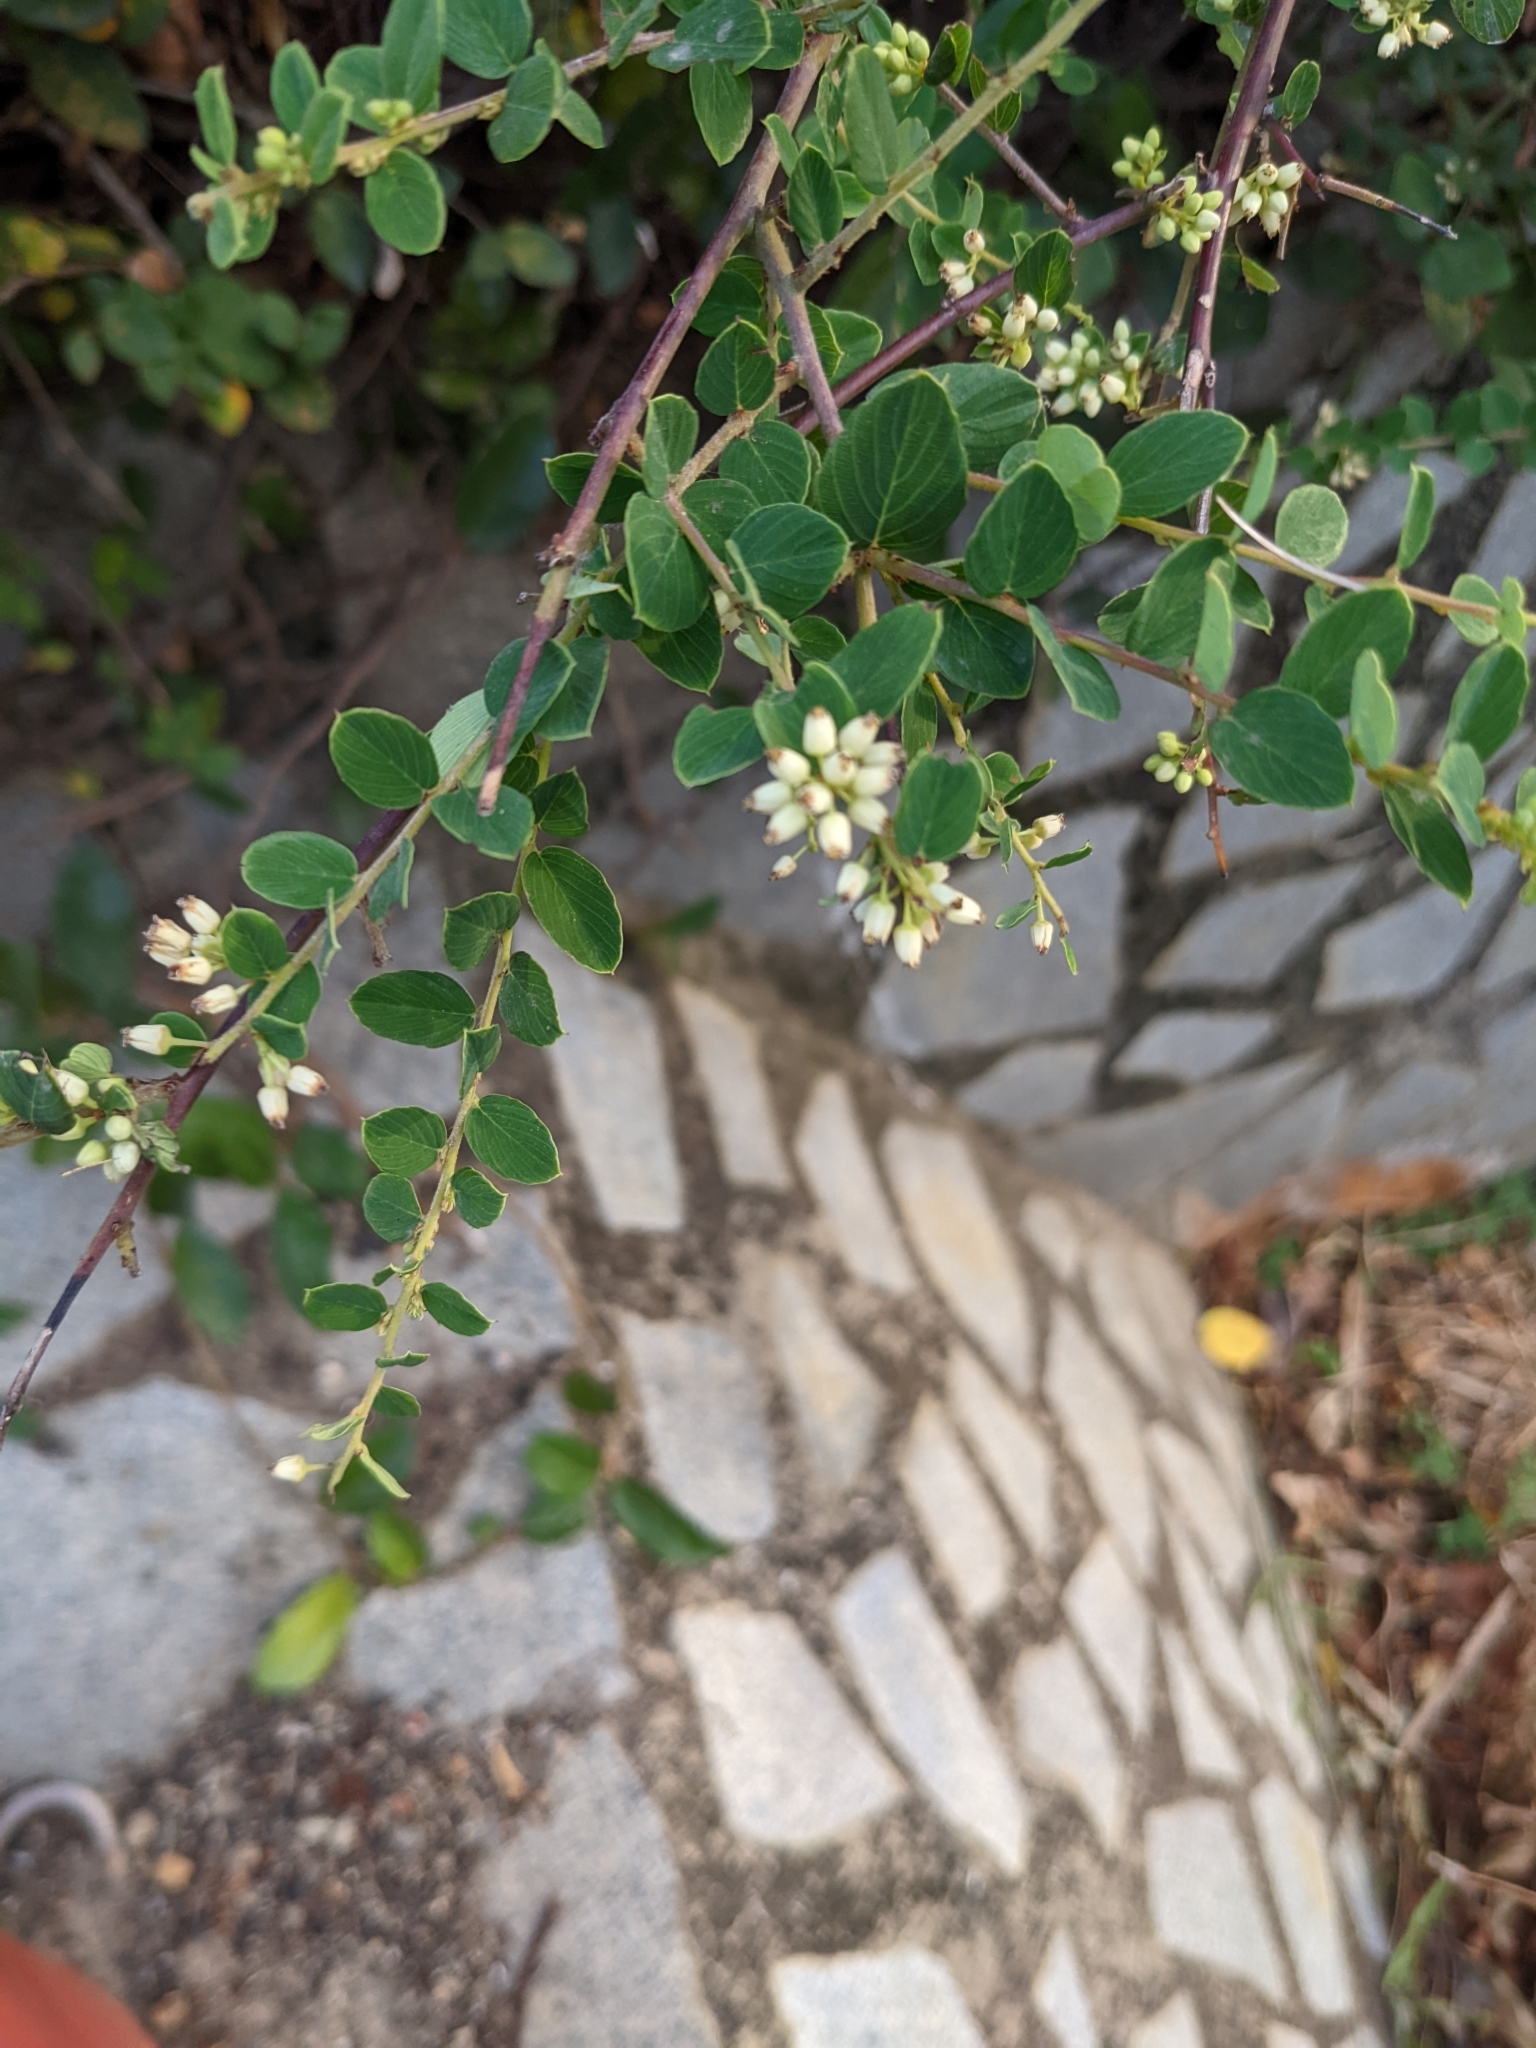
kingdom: Plantae
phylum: Tracheophyta
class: Magnoliopsida
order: Rosales
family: Rhamnaceae
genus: Berchemia
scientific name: Berchemia lineata
